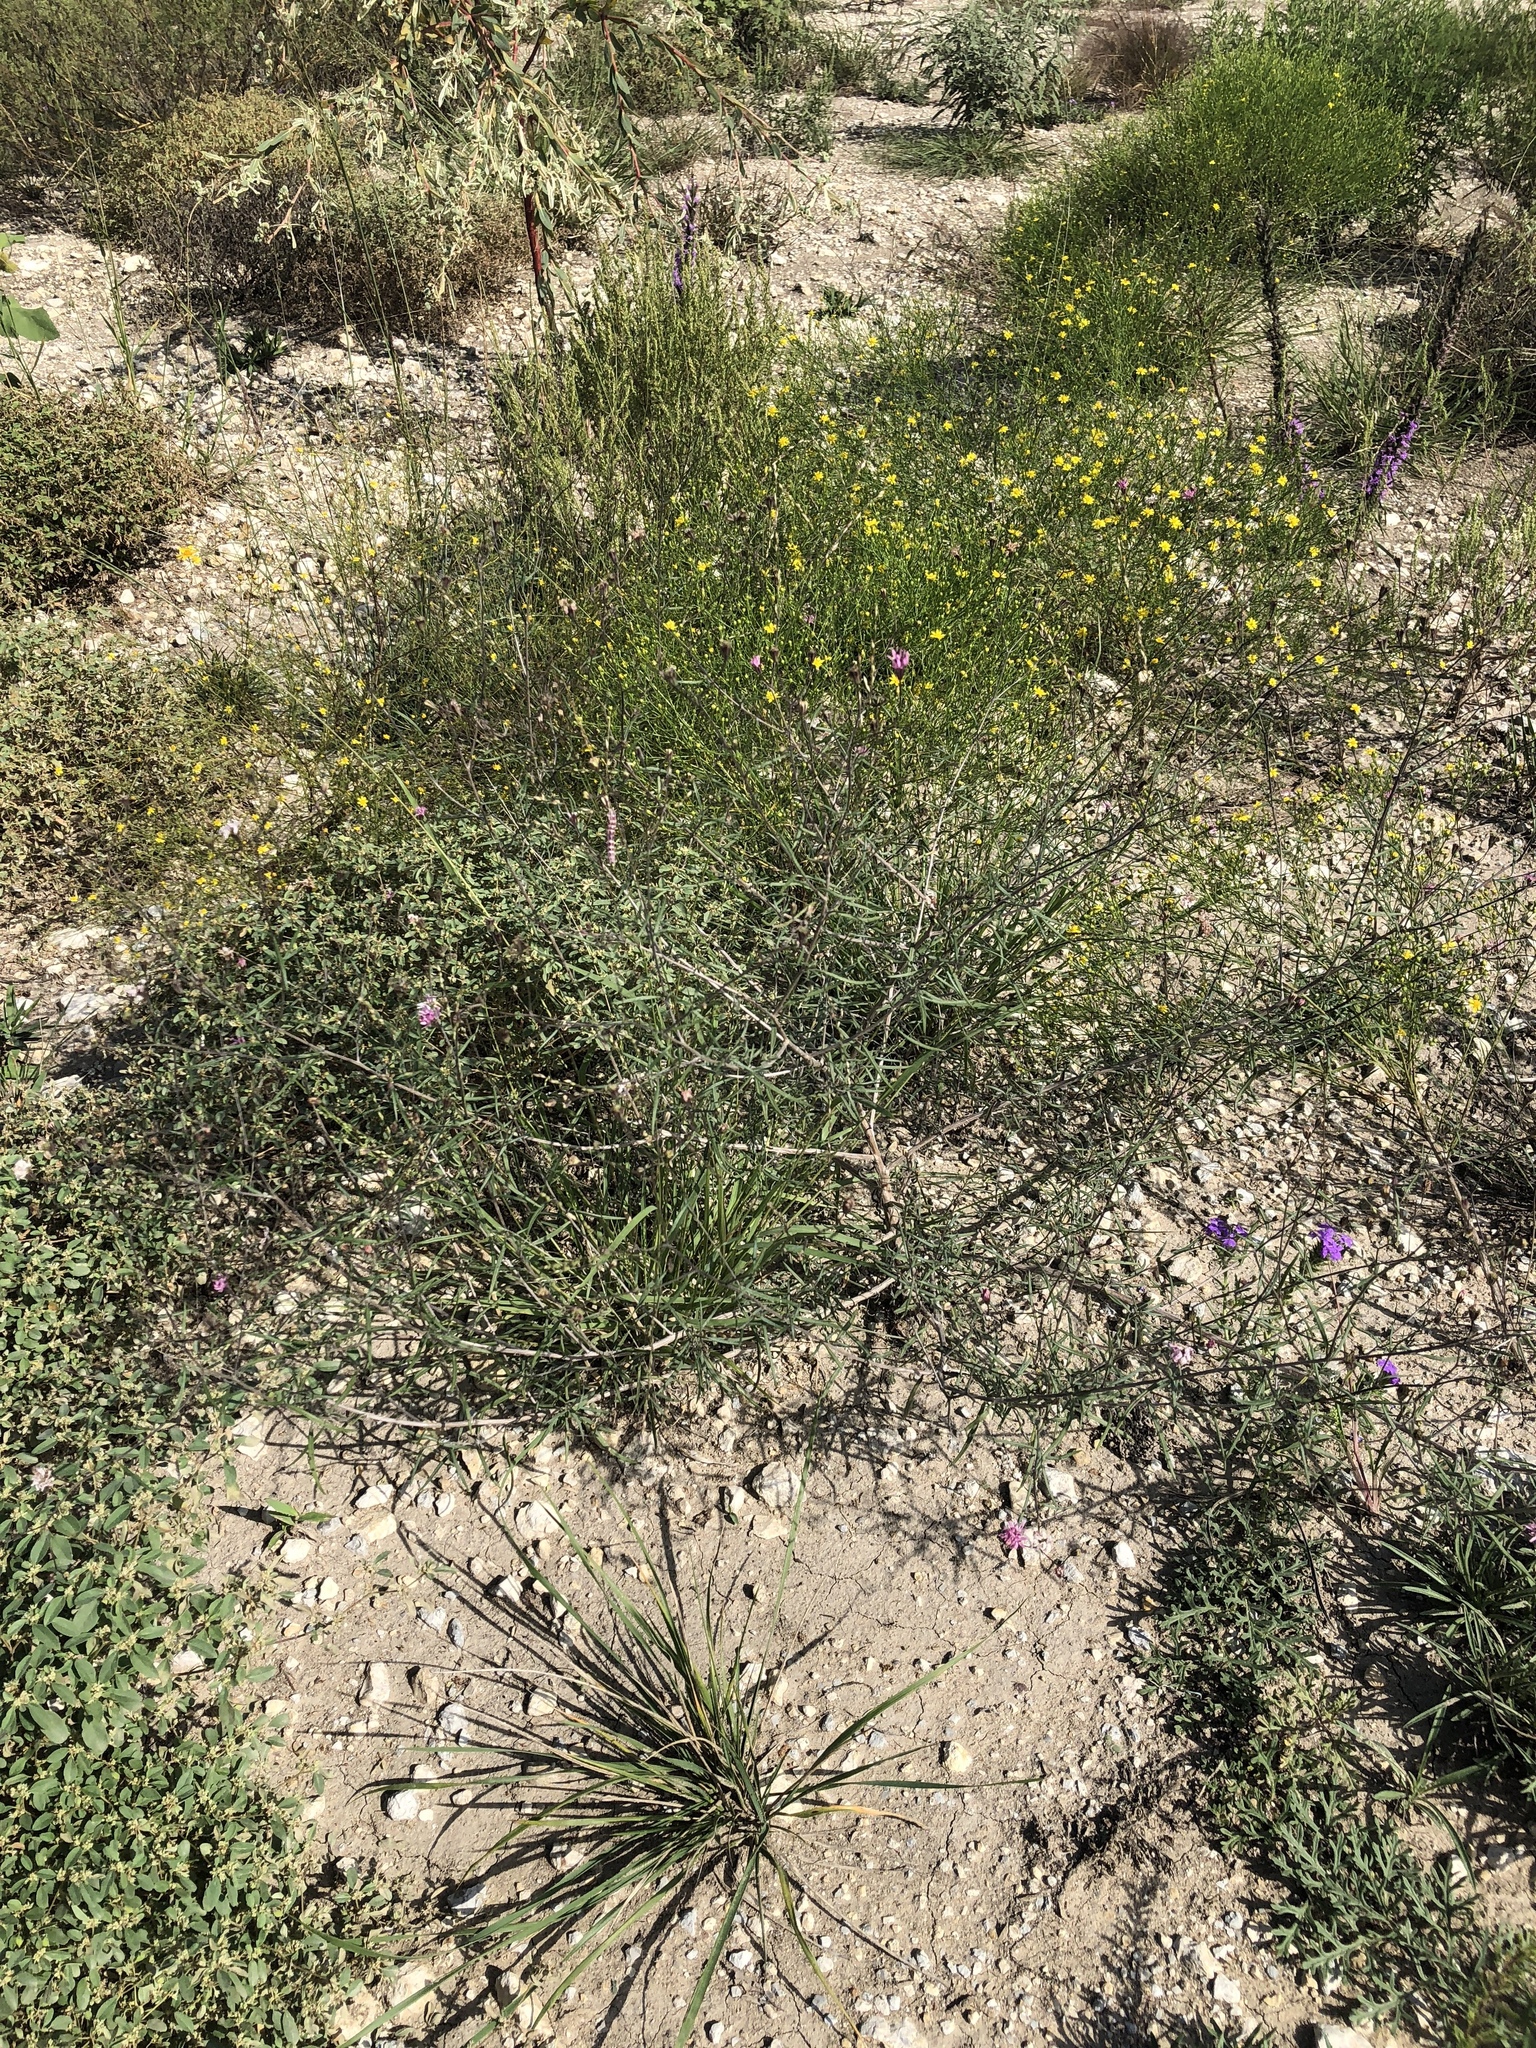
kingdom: Plantae
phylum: Tracheophyta
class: Magnoliopsida
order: Asterales
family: Asteraceae
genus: Palafoxia
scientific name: Palafoxia callosa
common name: Small palafox
